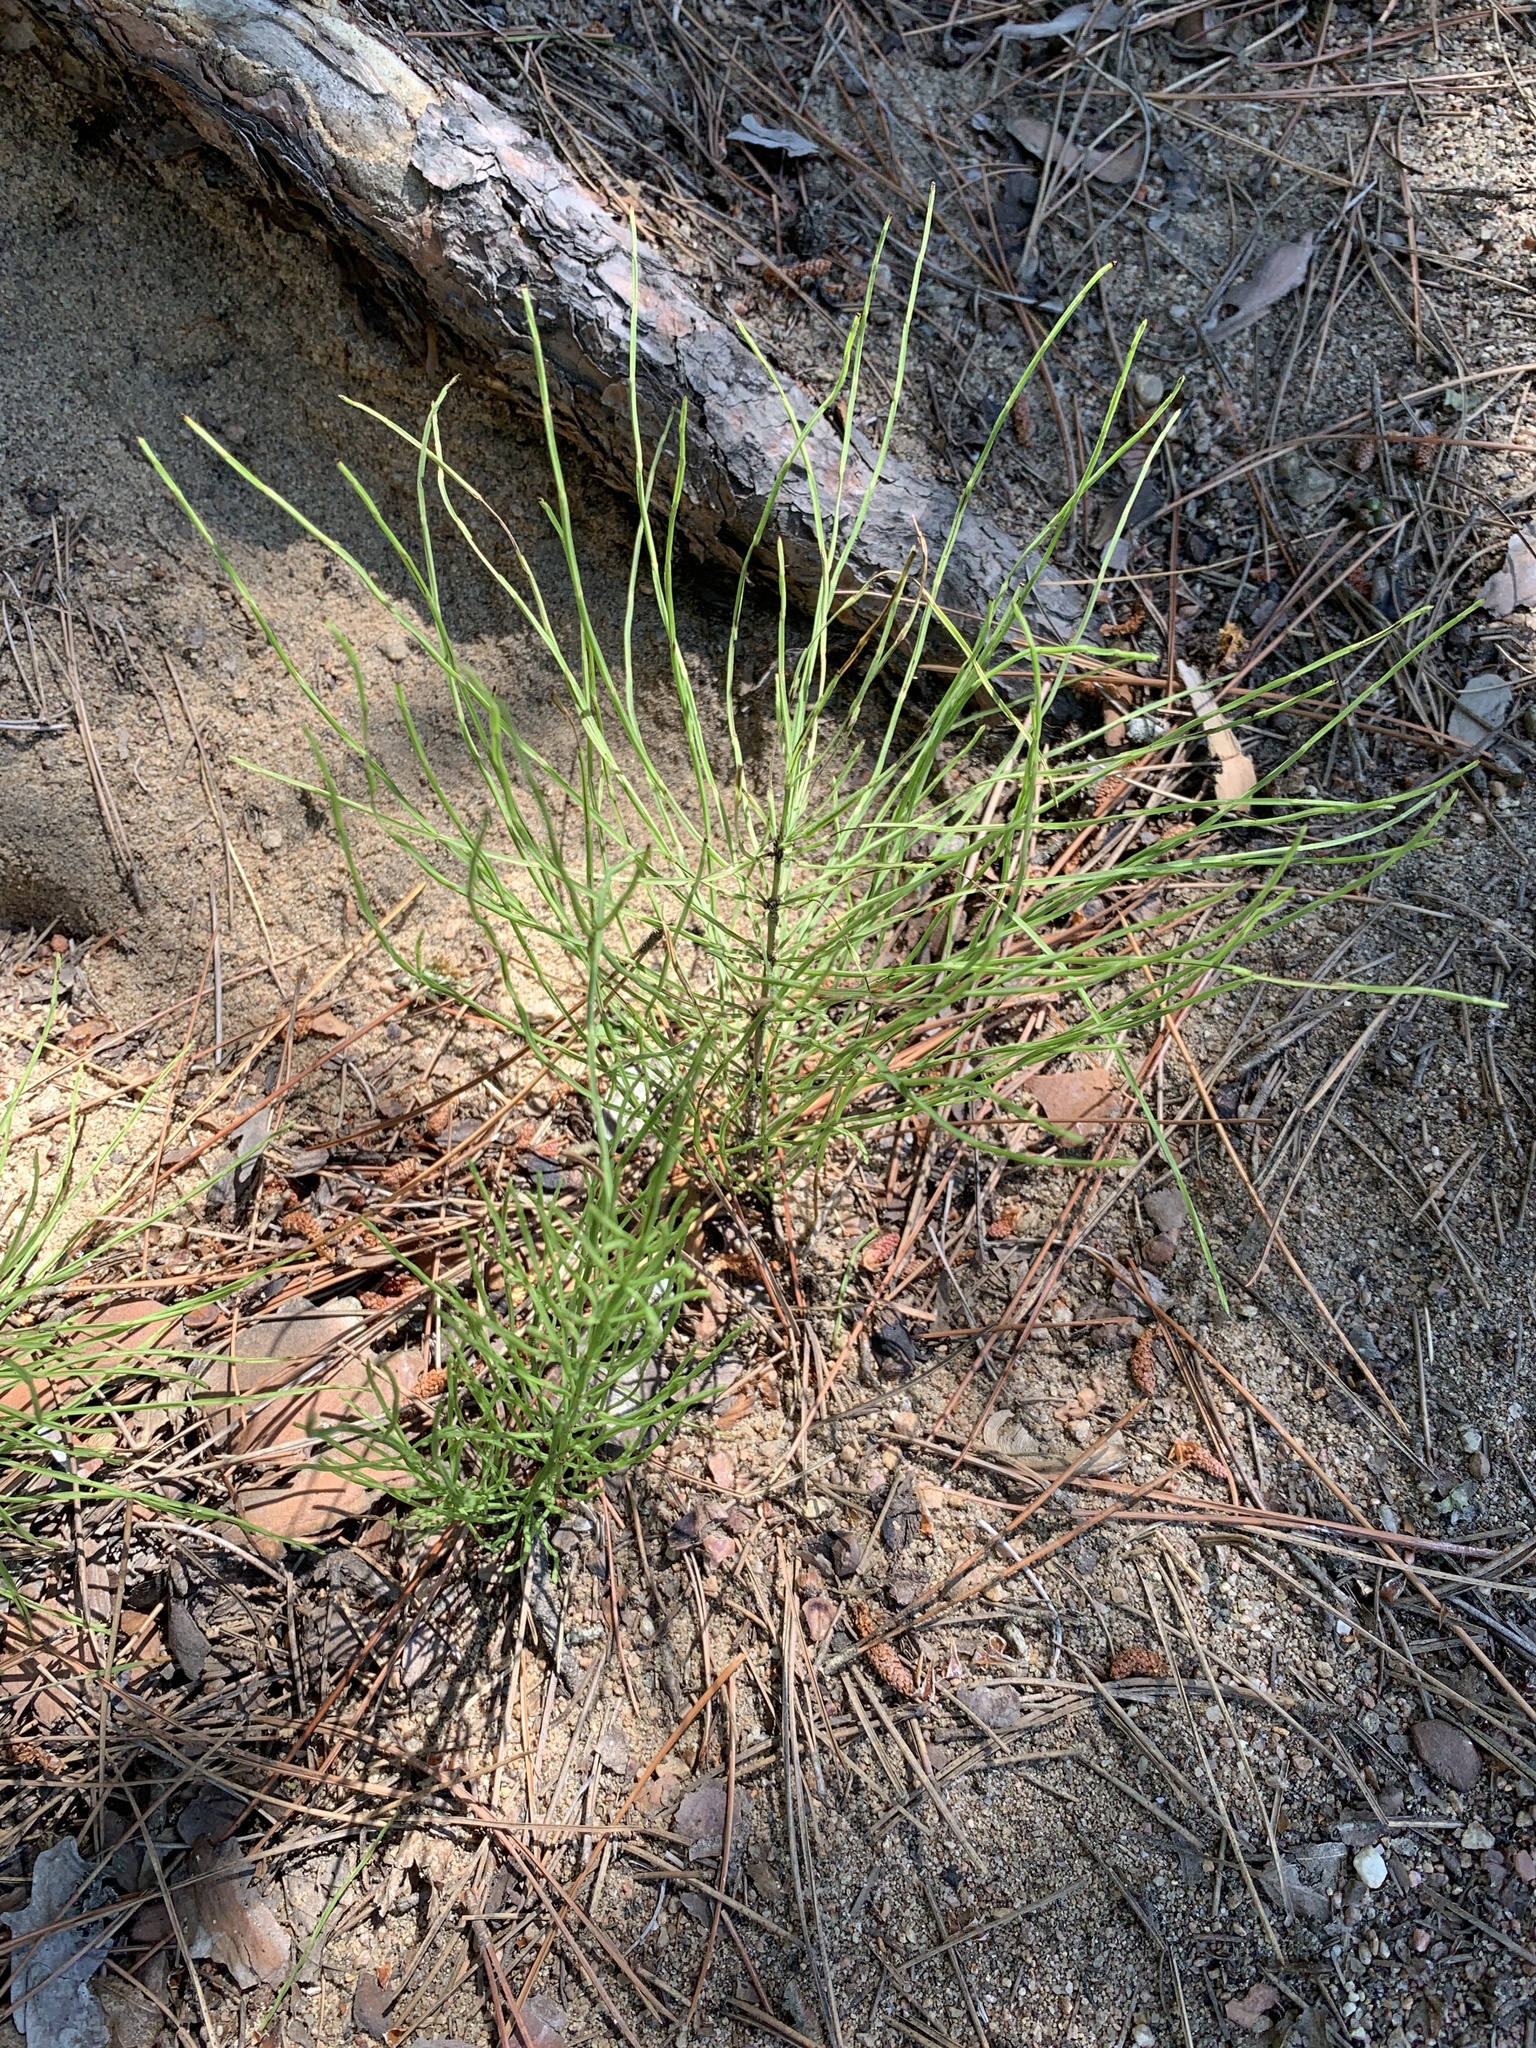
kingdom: Plantae
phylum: Tracheophyta
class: Polypodiopsida
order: Equisetales
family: Equisetaceae
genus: Equisetum
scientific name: Equisetum arvense
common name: Field horsetail
